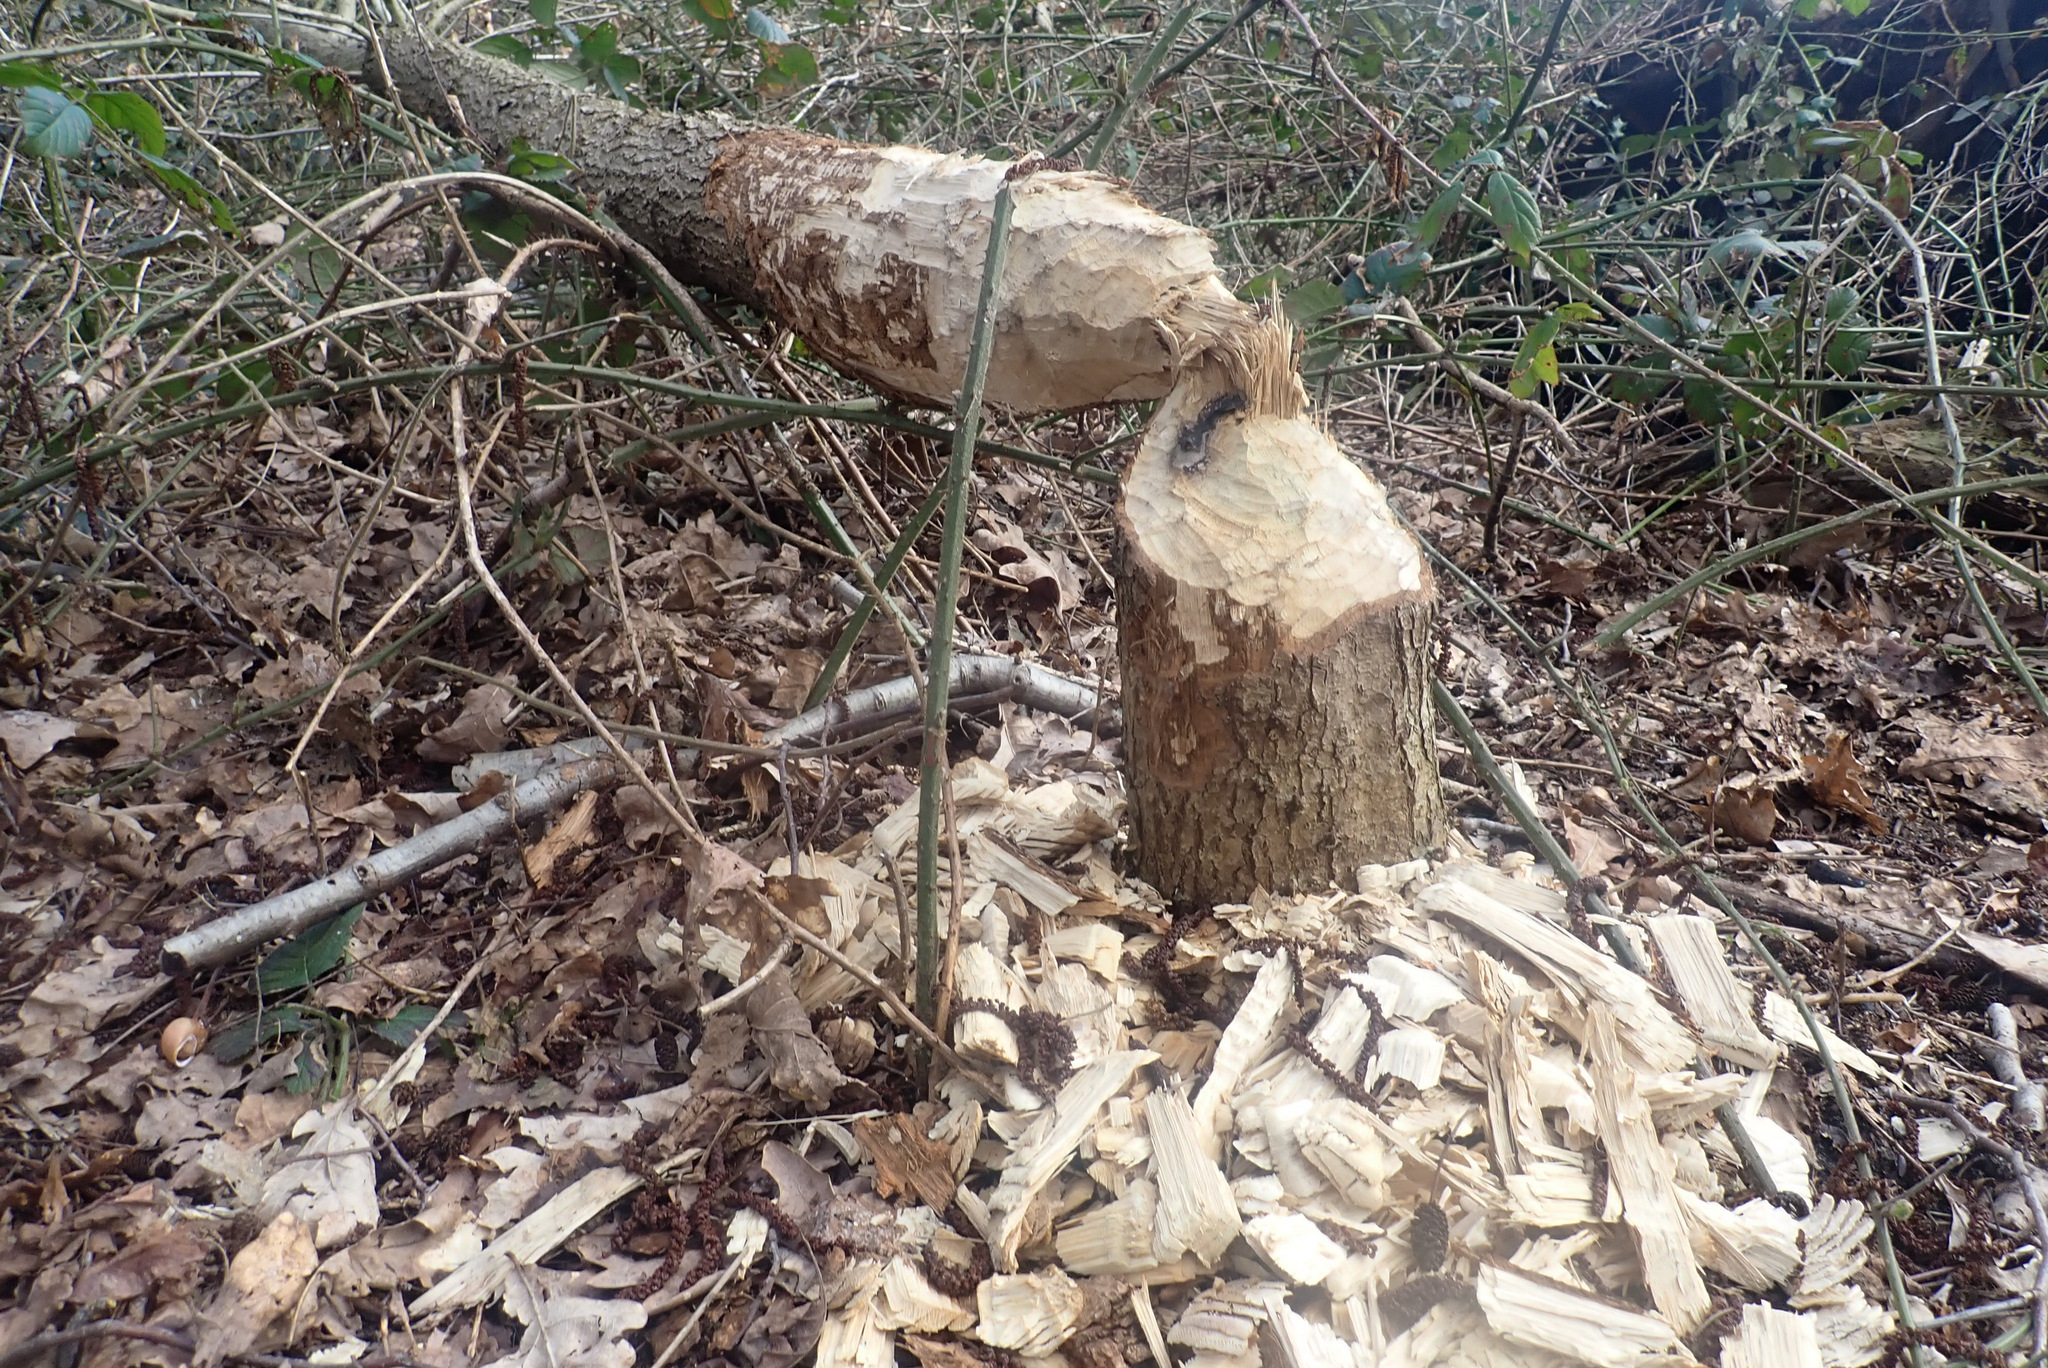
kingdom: Animalia
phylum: Chordata
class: Mammalia
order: Rodentia
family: Castoridae
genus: Castor
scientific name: Castor fiber
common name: Eurasian beaver
